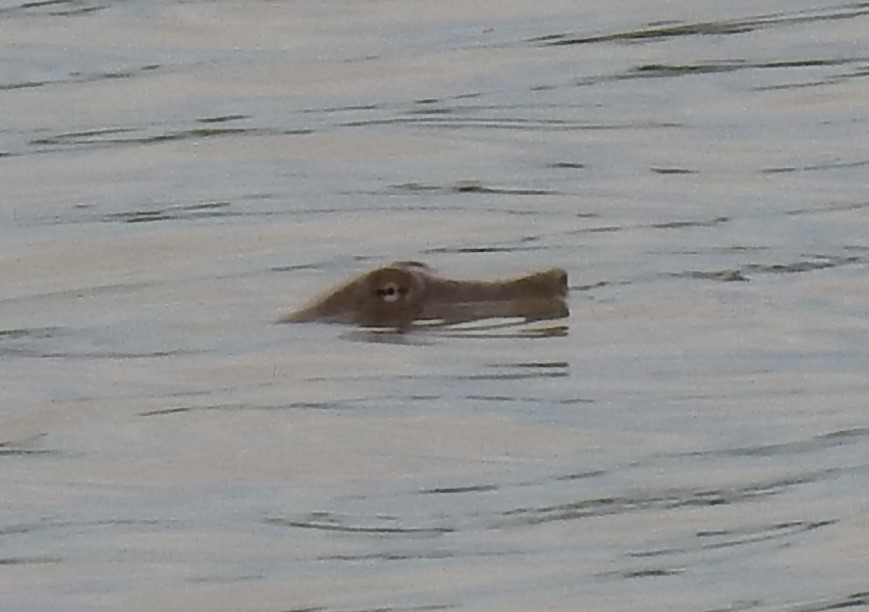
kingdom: Animalia
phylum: Chordata
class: Testudines
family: Trionychidae
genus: Apalone
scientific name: Apalone spinifera
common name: Spiny softshell turtle
